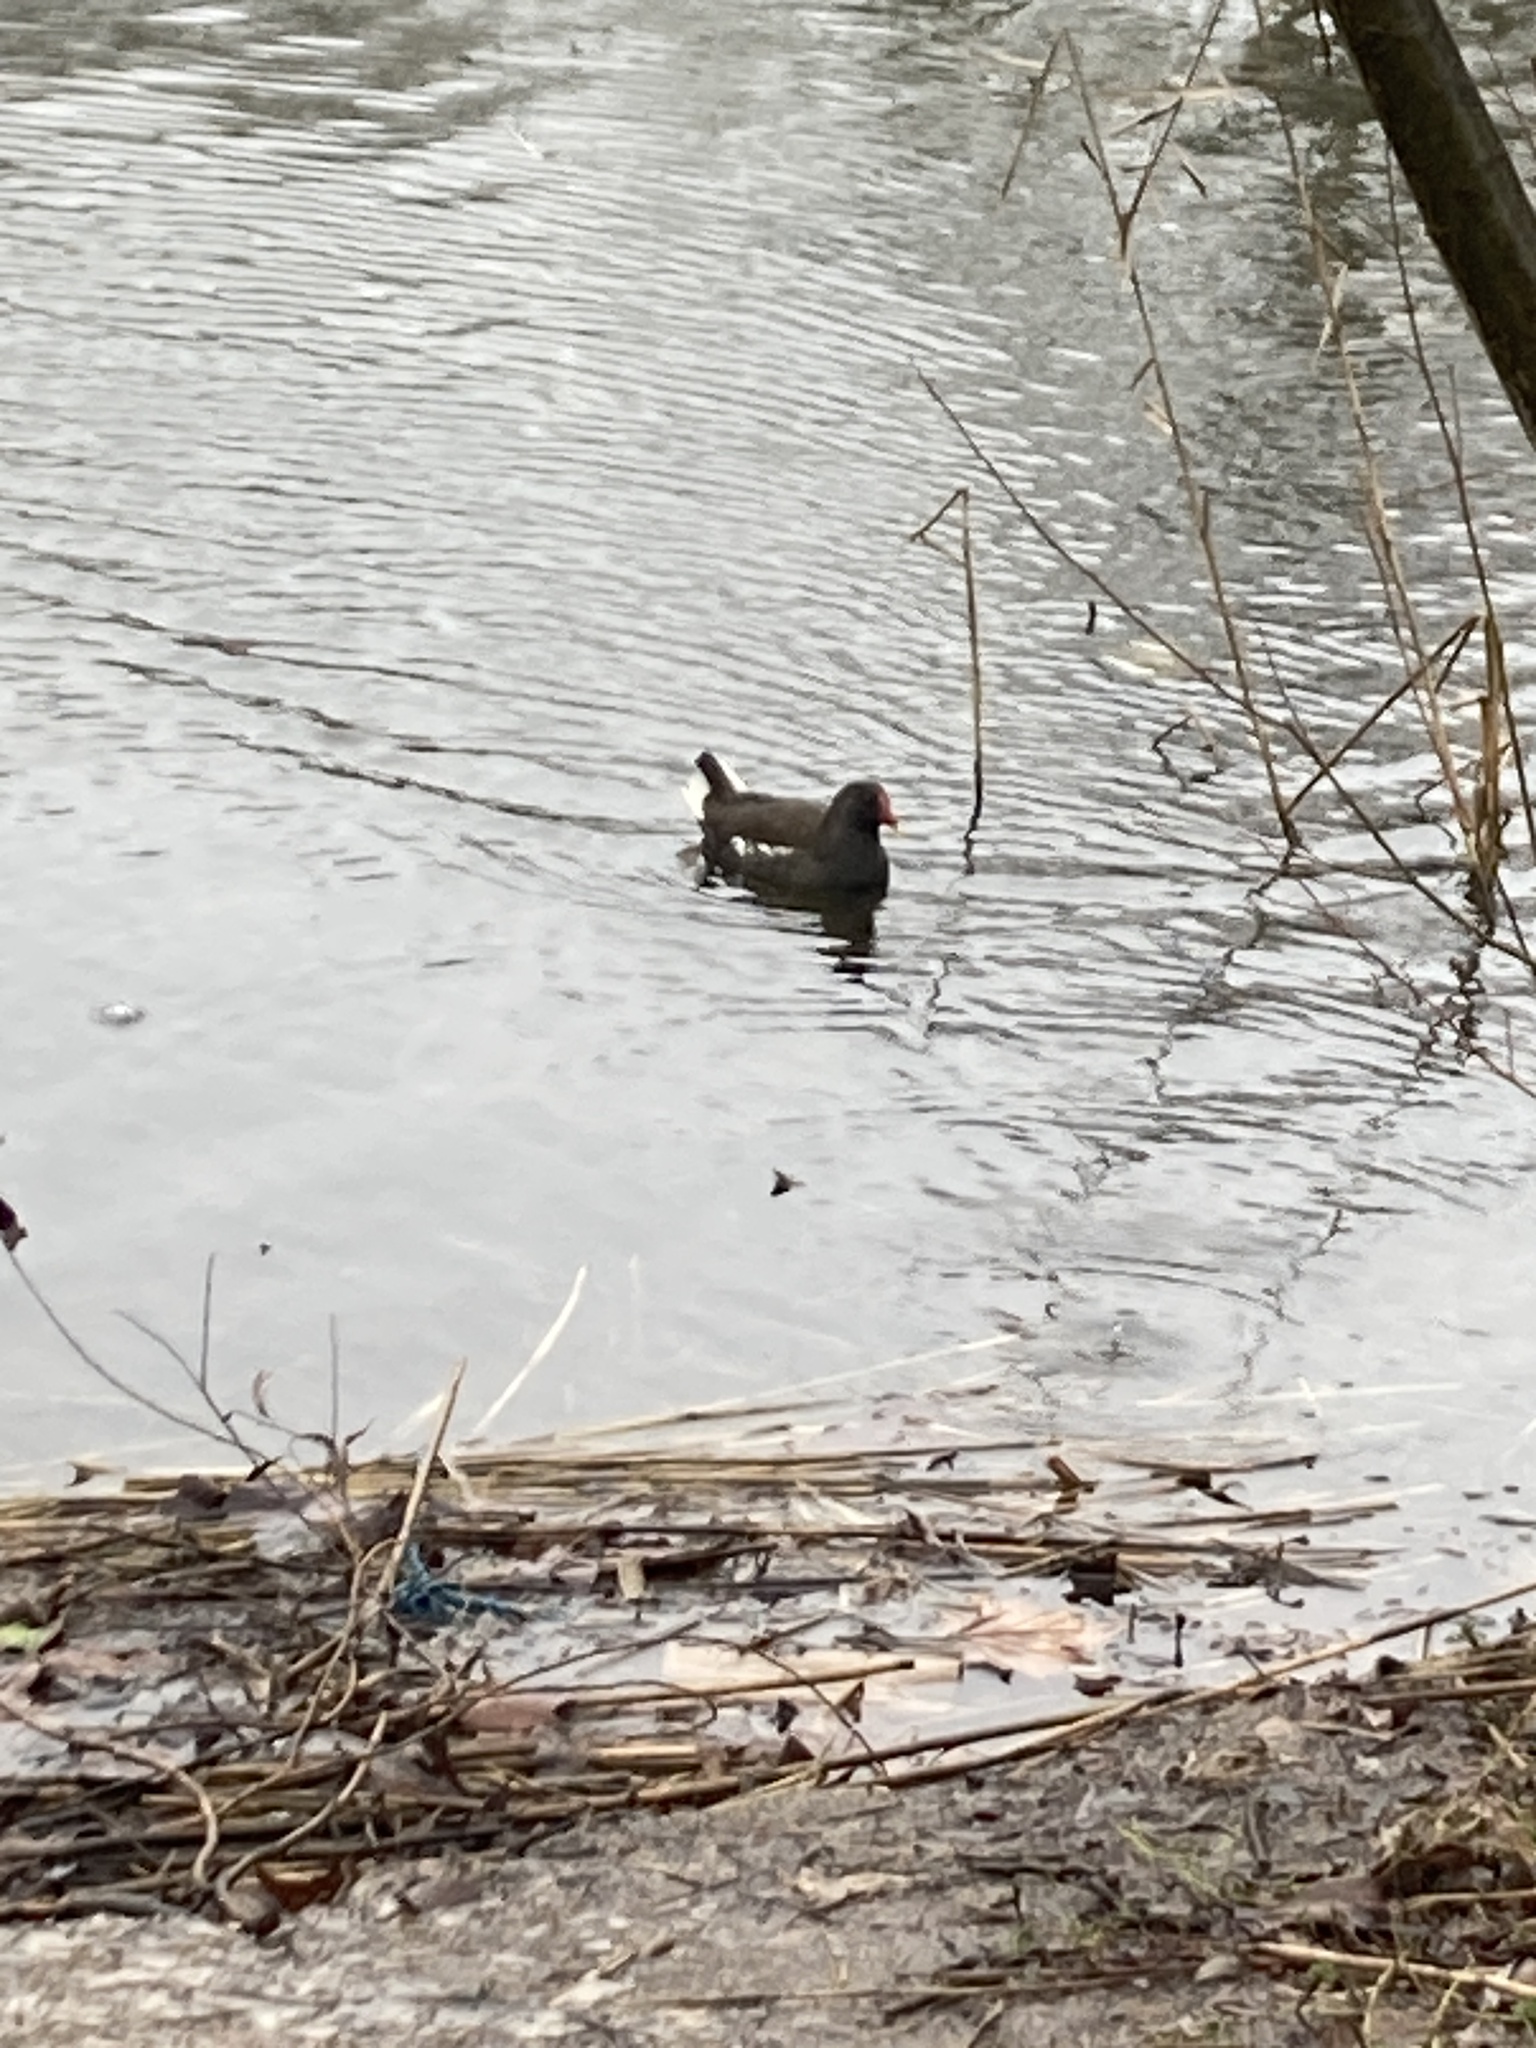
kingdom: Animalia
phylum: Chordata
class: Aves
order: Gruiformes
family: Rallidae
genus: Gallinula
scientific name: Gallinula chloropus
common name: Common moorhen
